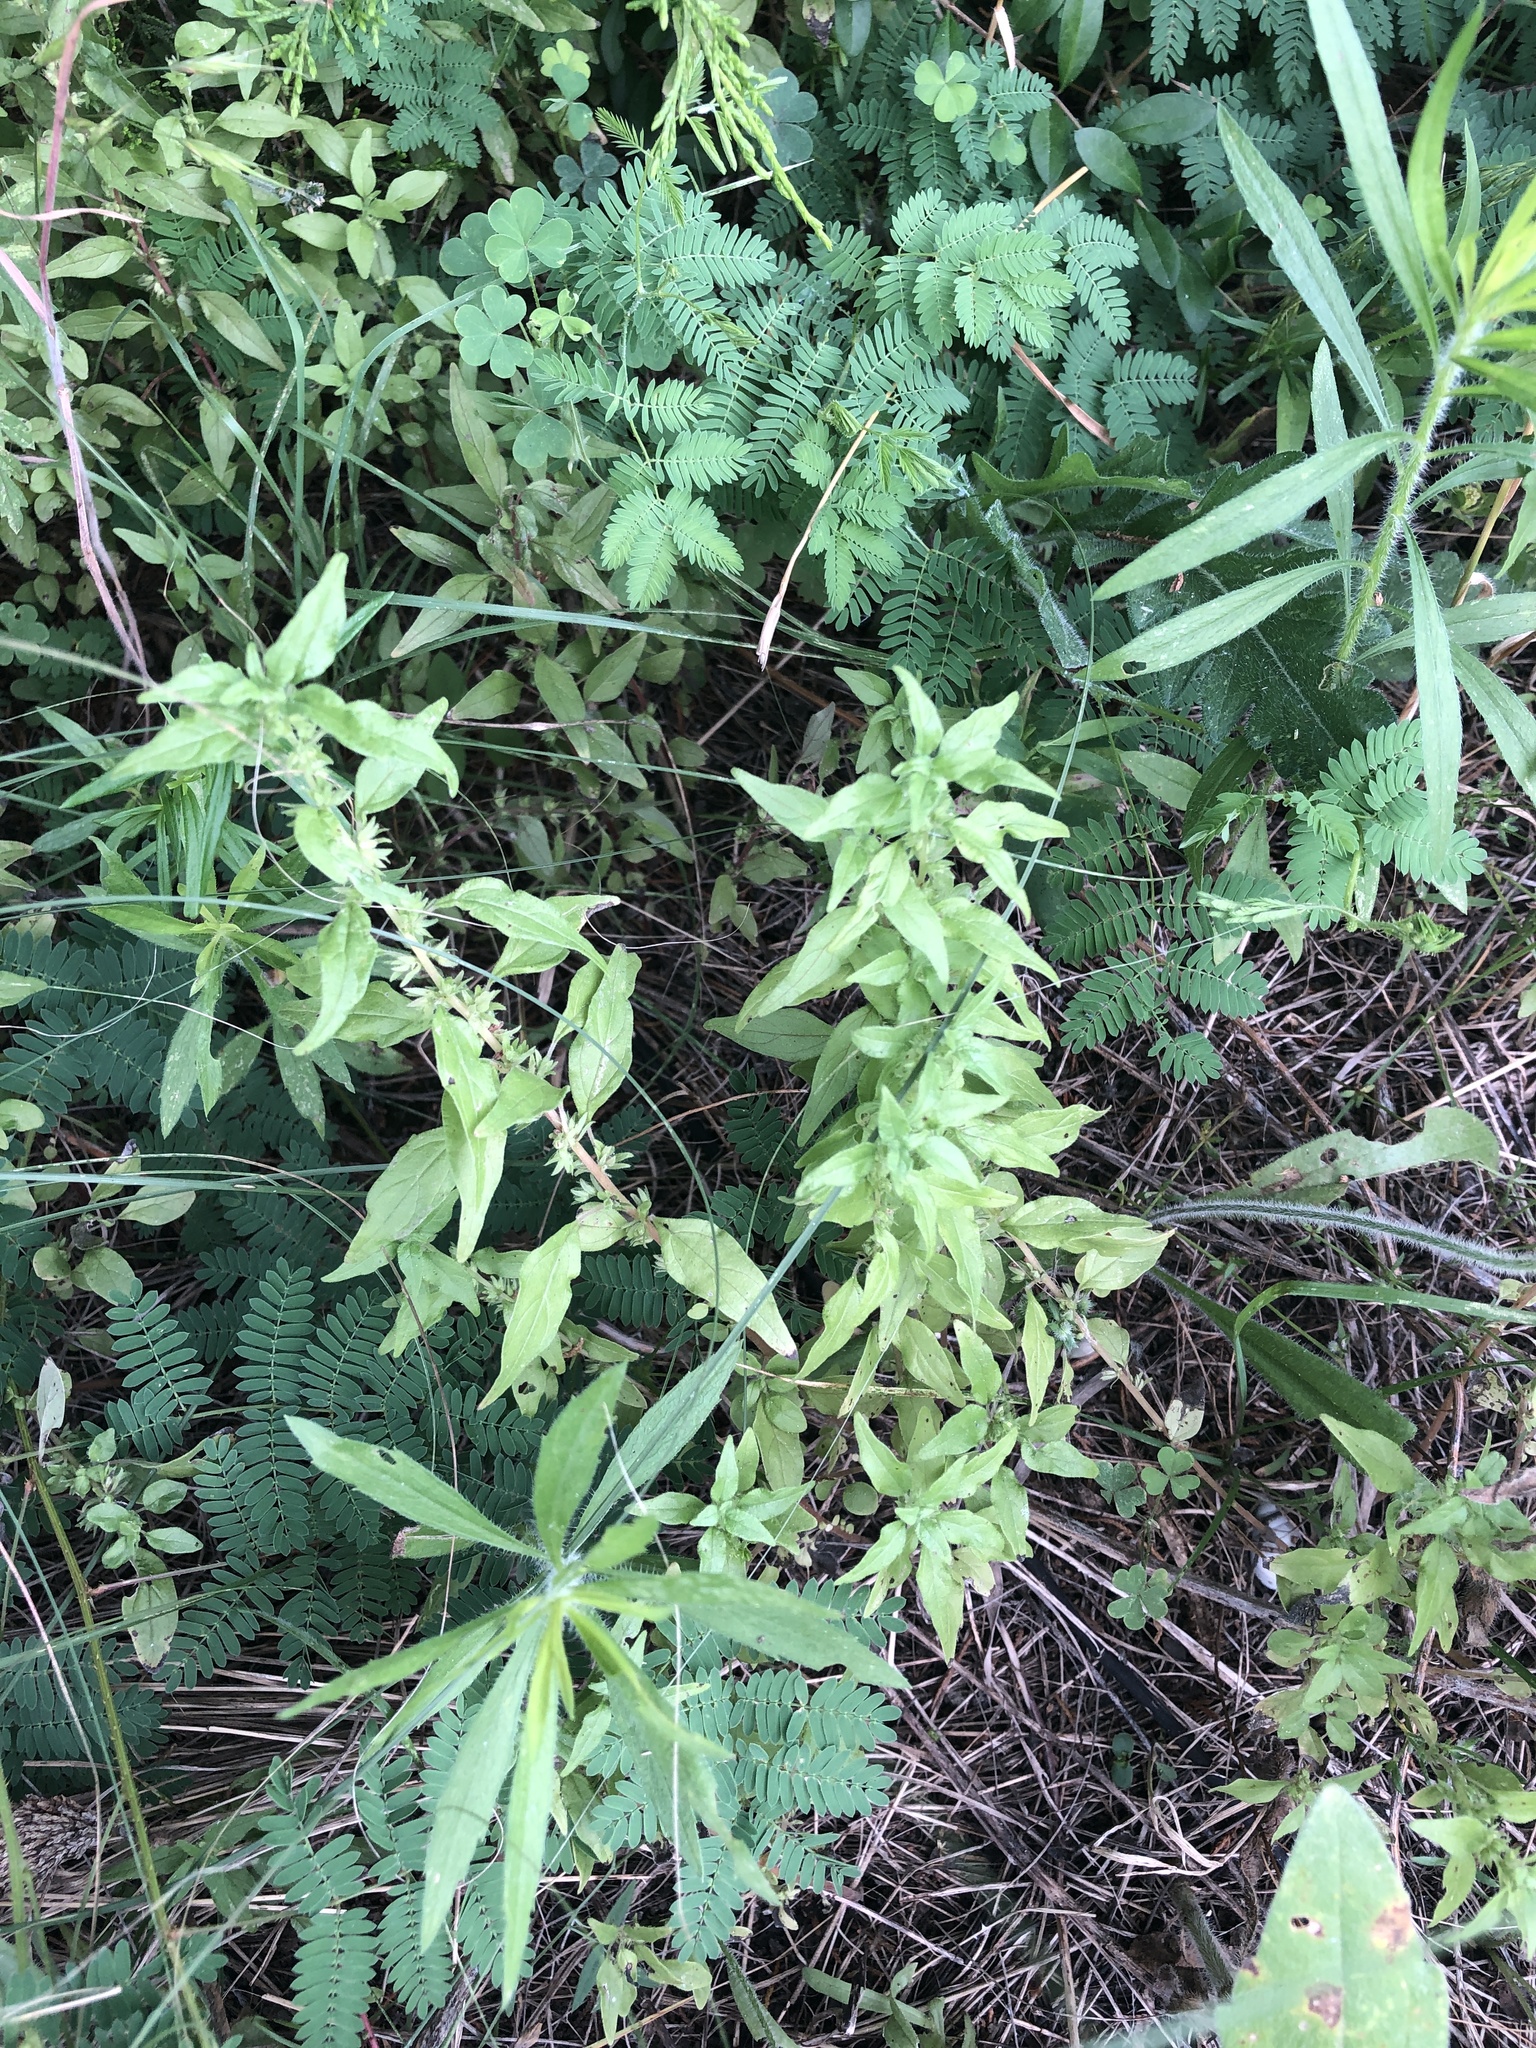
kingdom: Plantae
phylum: Tracheophyta
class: Magnoliopsida
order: Rosales
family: Urticaceae
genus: Parietaria
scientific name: Parietaria pensylvanica
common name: Pennsylvania pellitory
